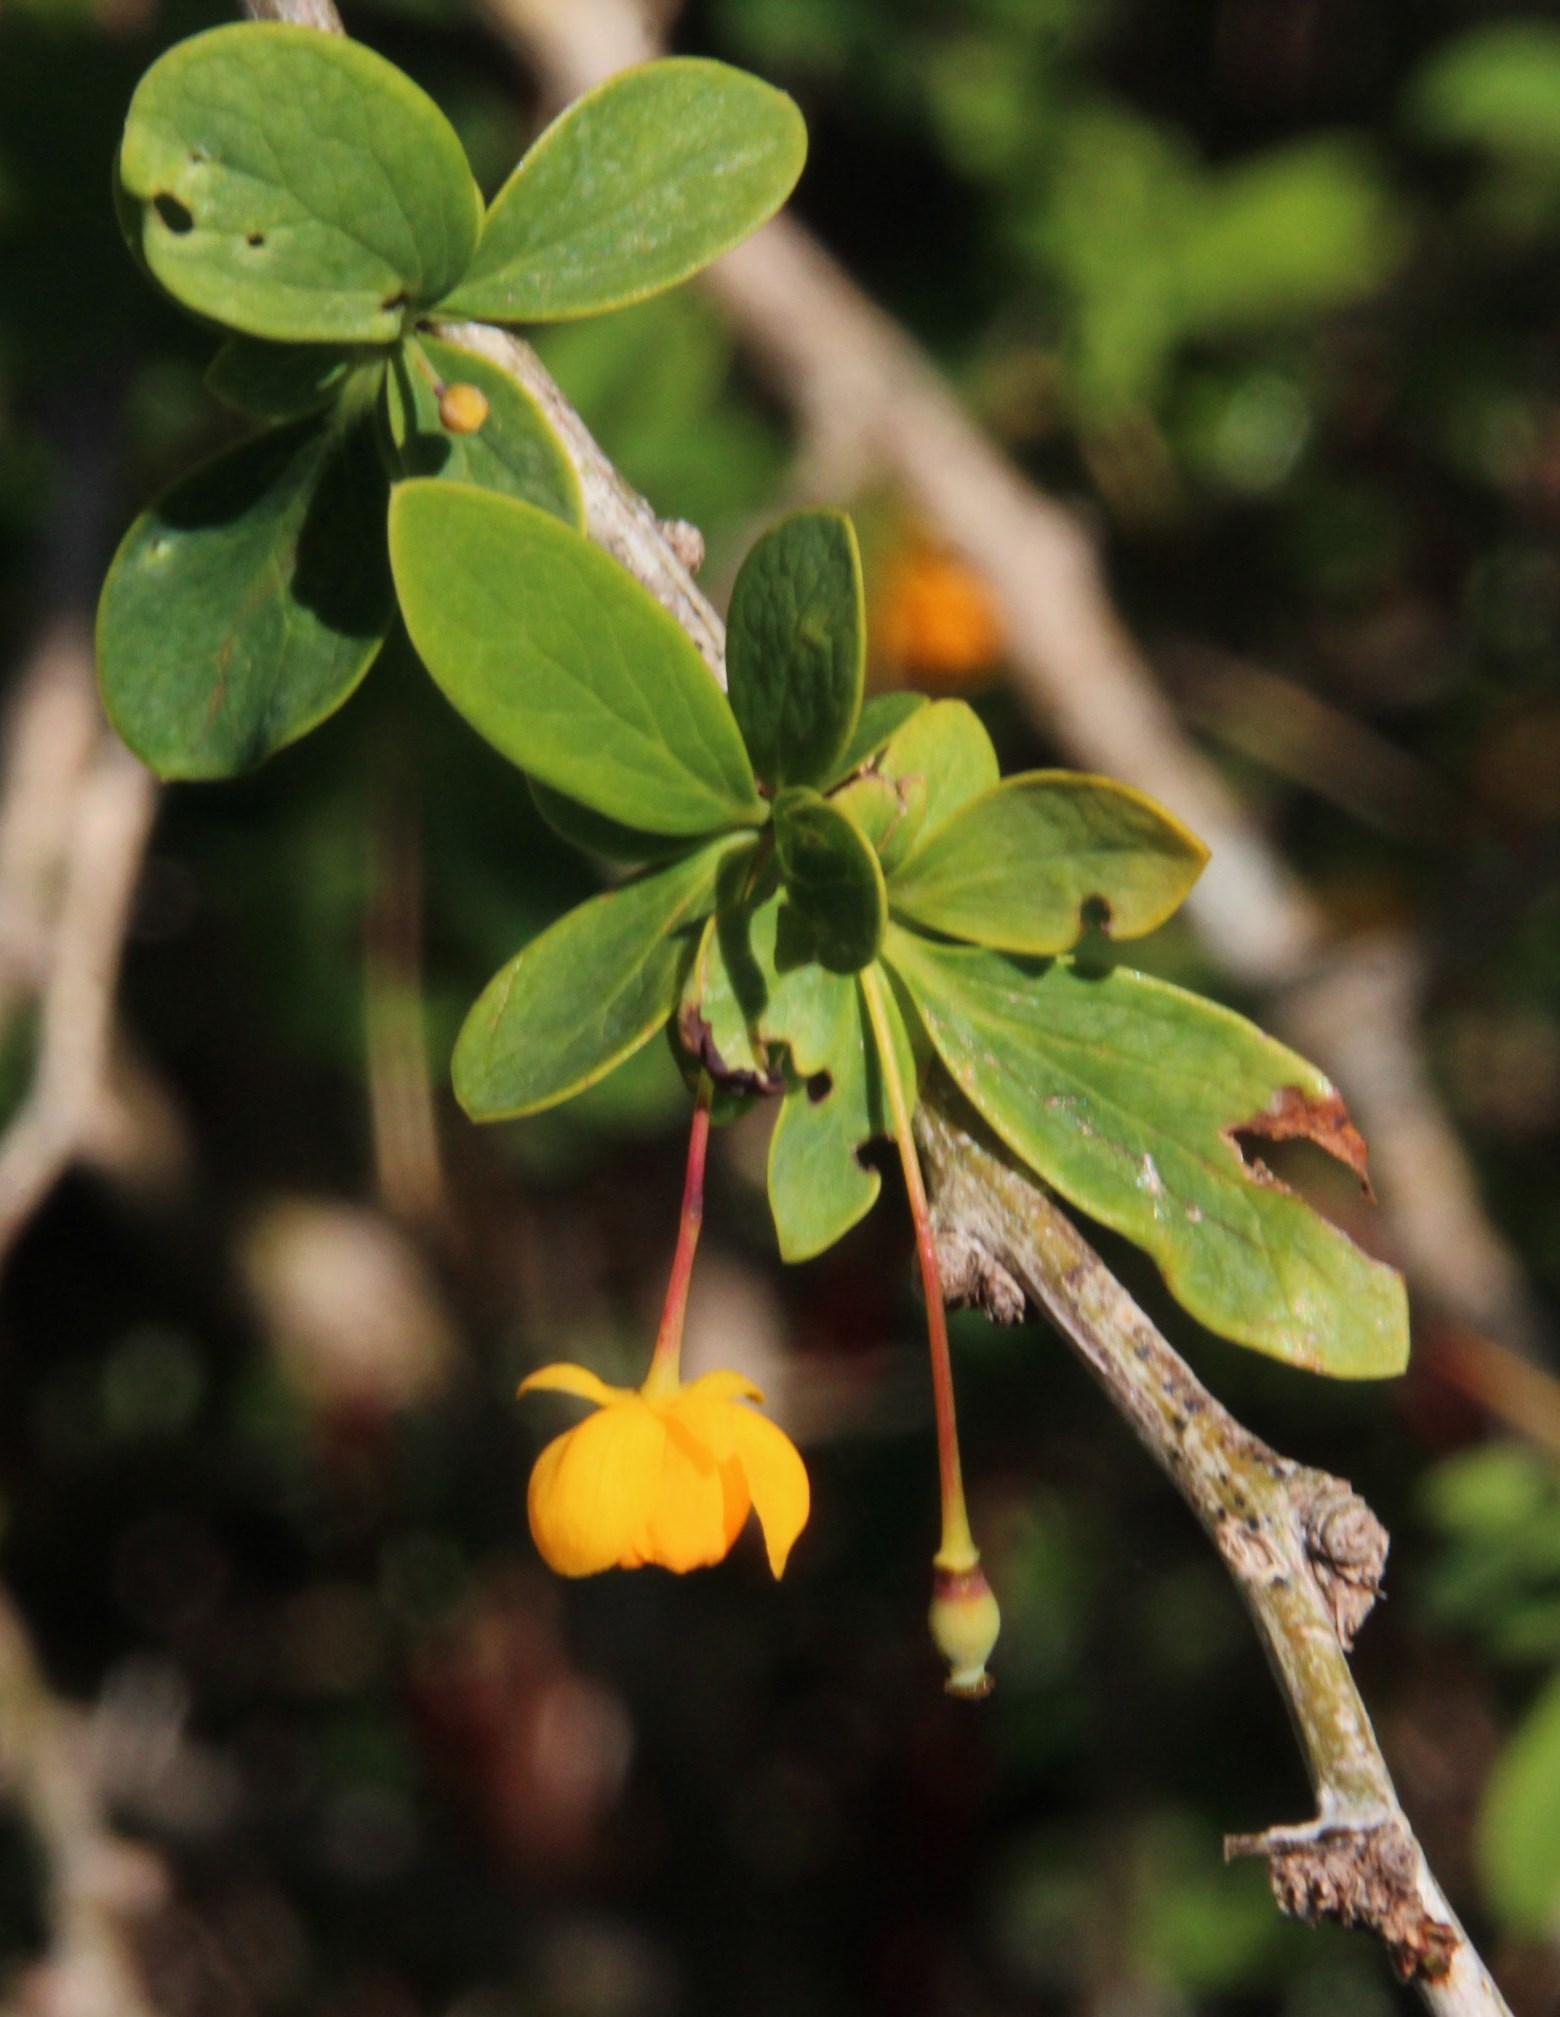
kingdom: Plantae
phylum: Tracheophyta
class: Magnoliopsida
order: Ranunculales
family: Berberidaceae
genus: Berberis
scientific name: Berberis microphylla
